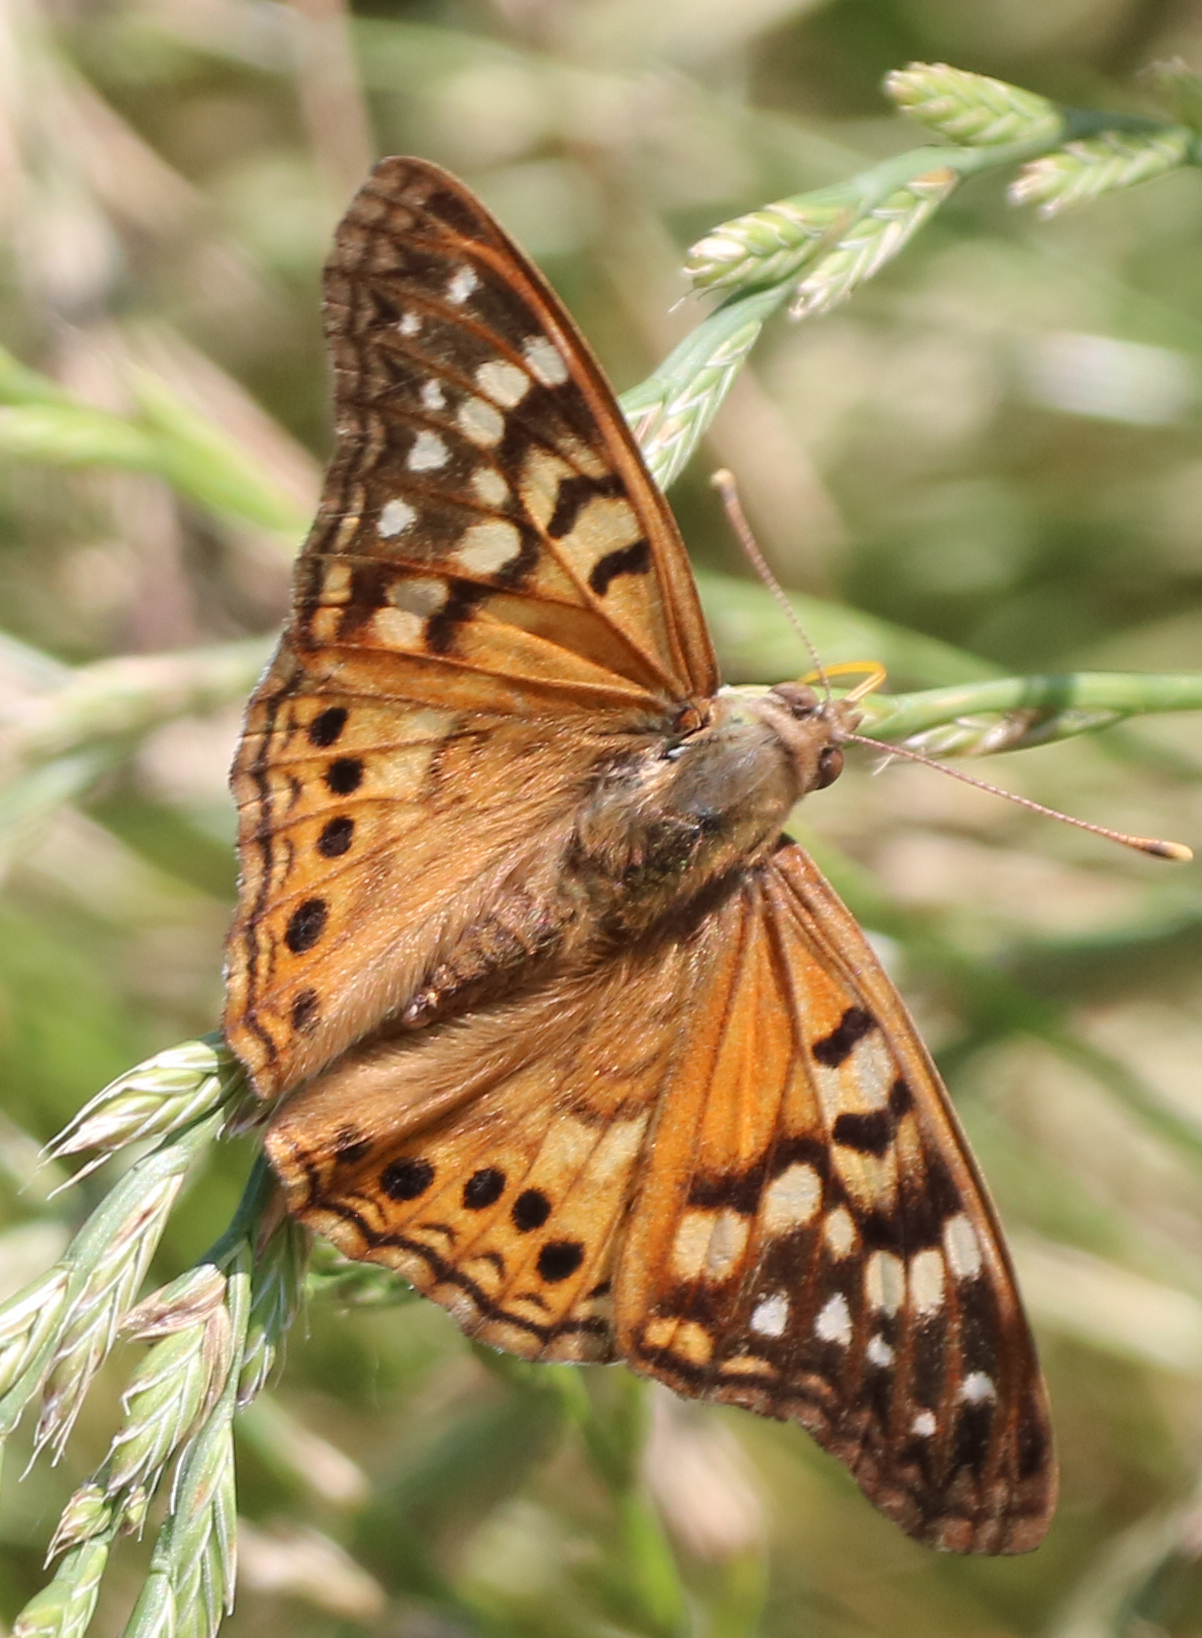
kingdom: Animalia
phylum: Arthropoda
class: Insecta
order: Lepidoptera
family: Nymphalidae
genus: Asterocampa
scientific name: Asterocampa clyton
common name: Tawny emperor
